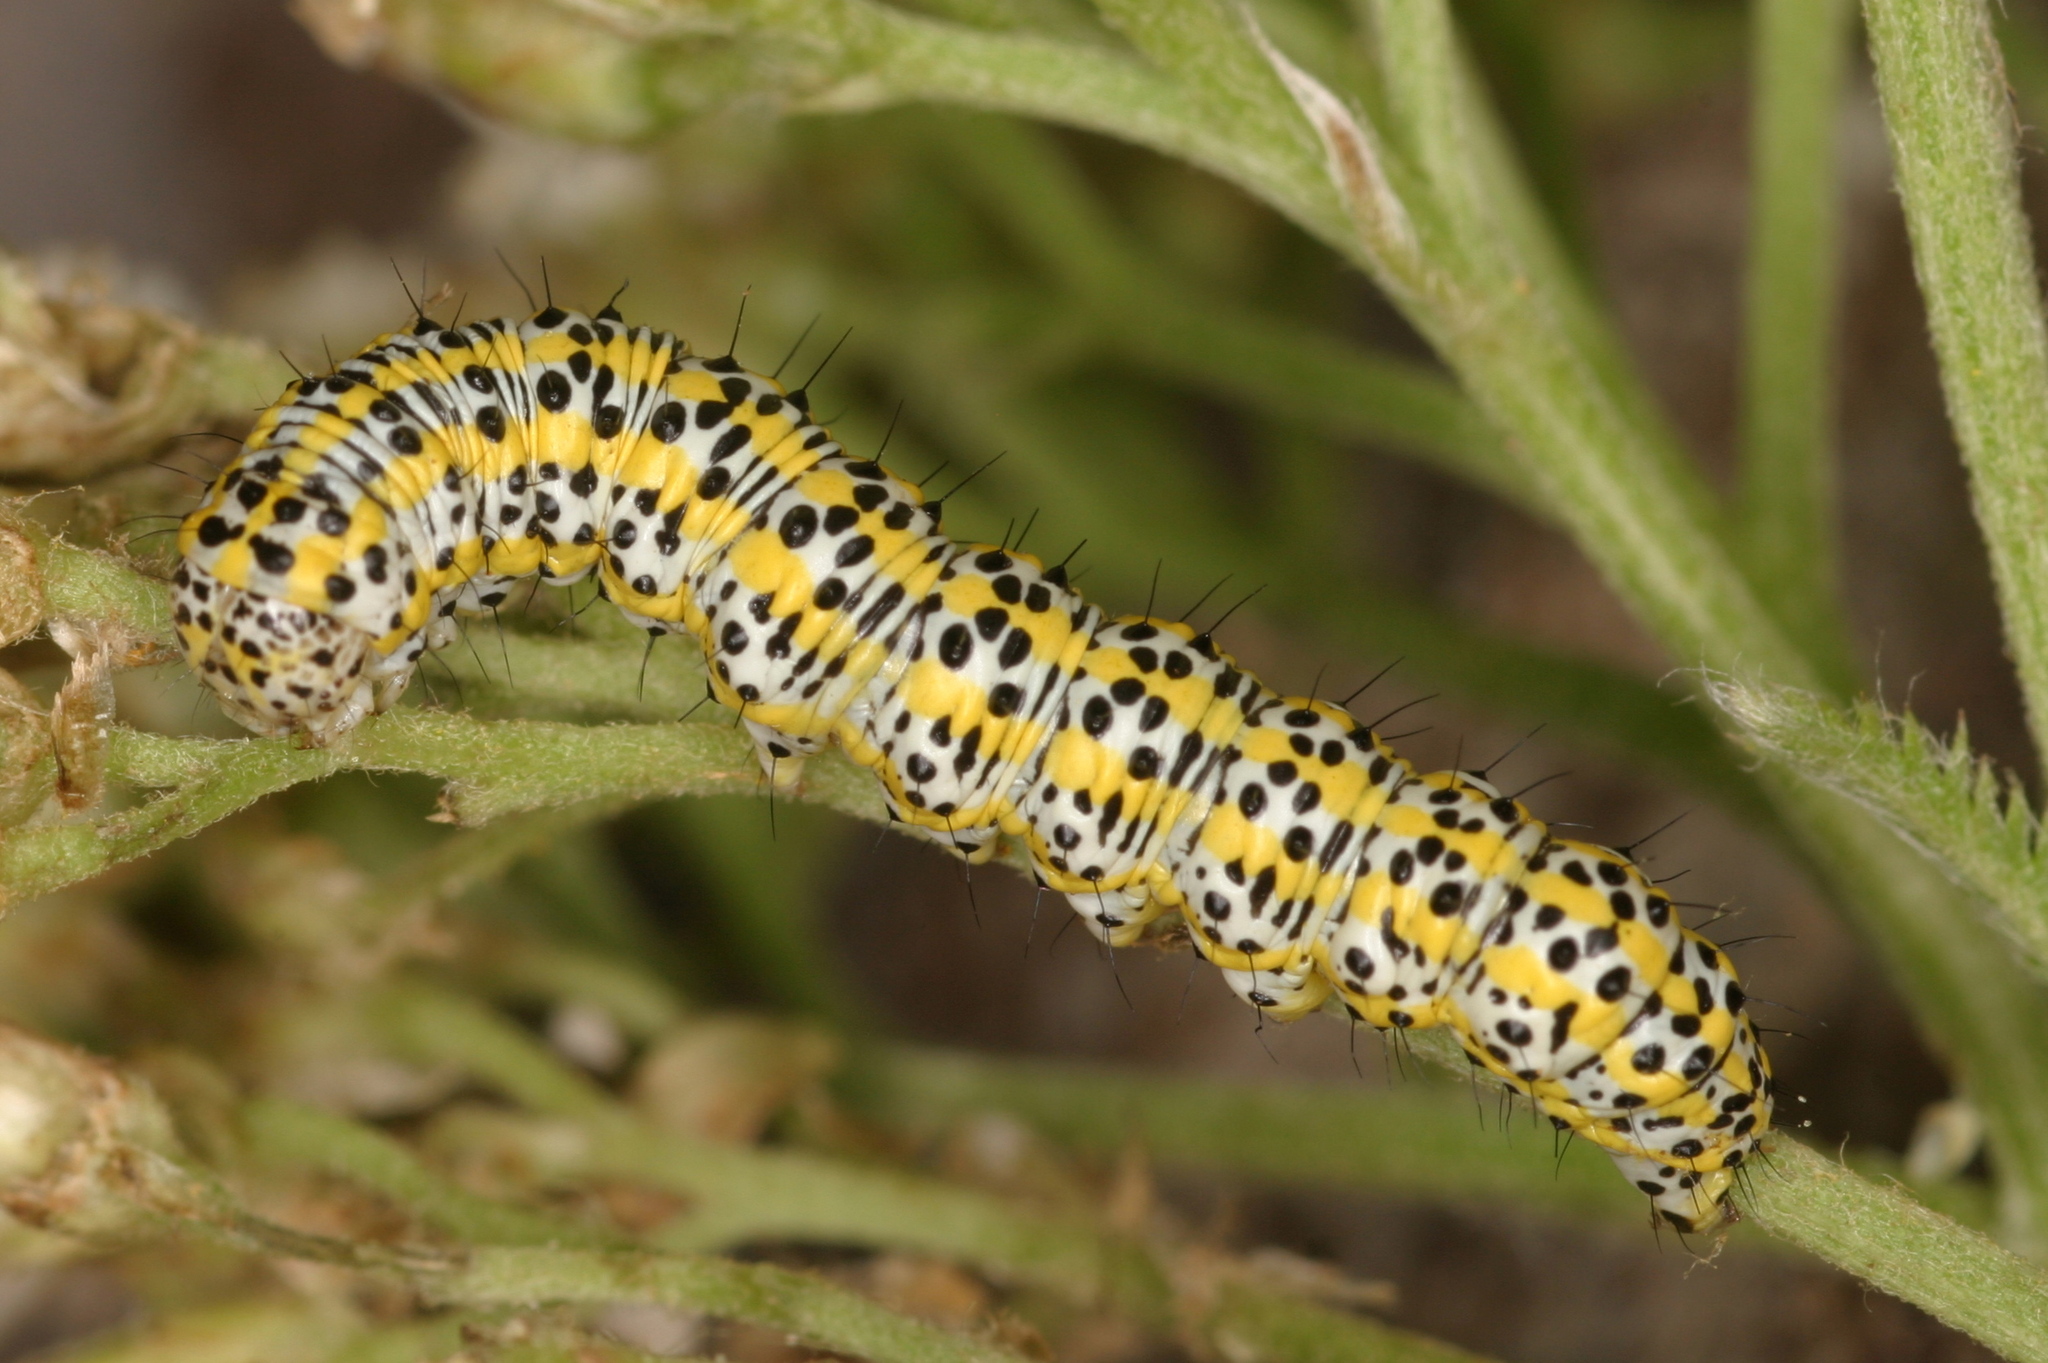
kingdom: Animalia
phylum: Arthropoda
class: Insecta
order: Lepidoptera
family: Noctuidae
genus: Cucullia
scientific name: Cucullia tanaceti
